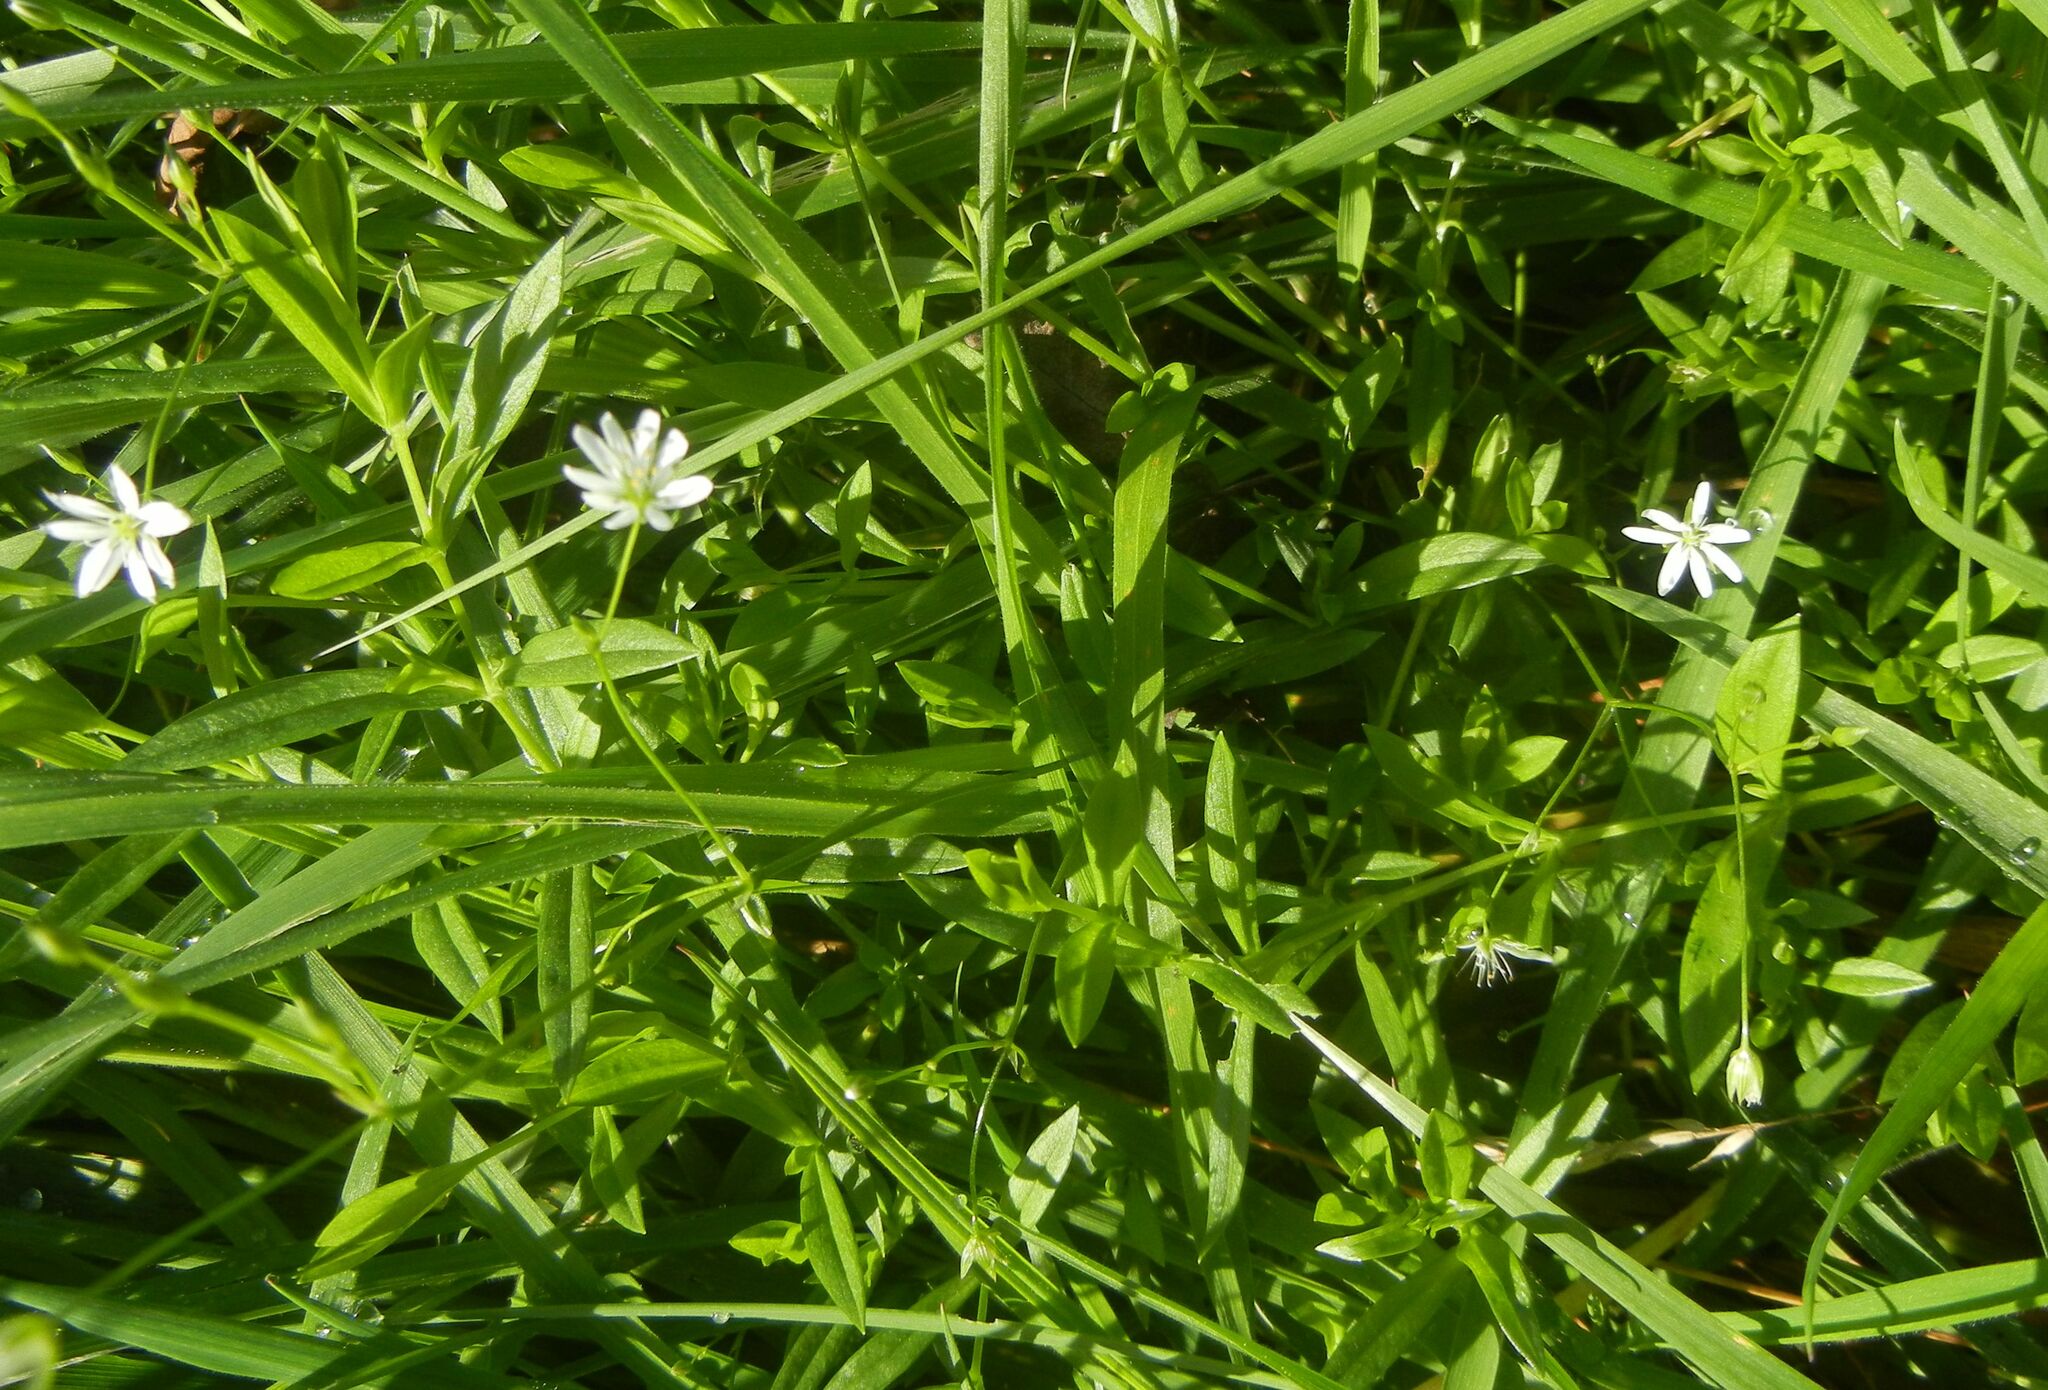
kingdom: Plantae
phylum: Tracheophyta
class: Magnoliopsida
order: Caryophyllales
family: Caryophyllaceae
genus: Stellaria
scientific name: Stellaria graminea
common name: Grass-like starwort
